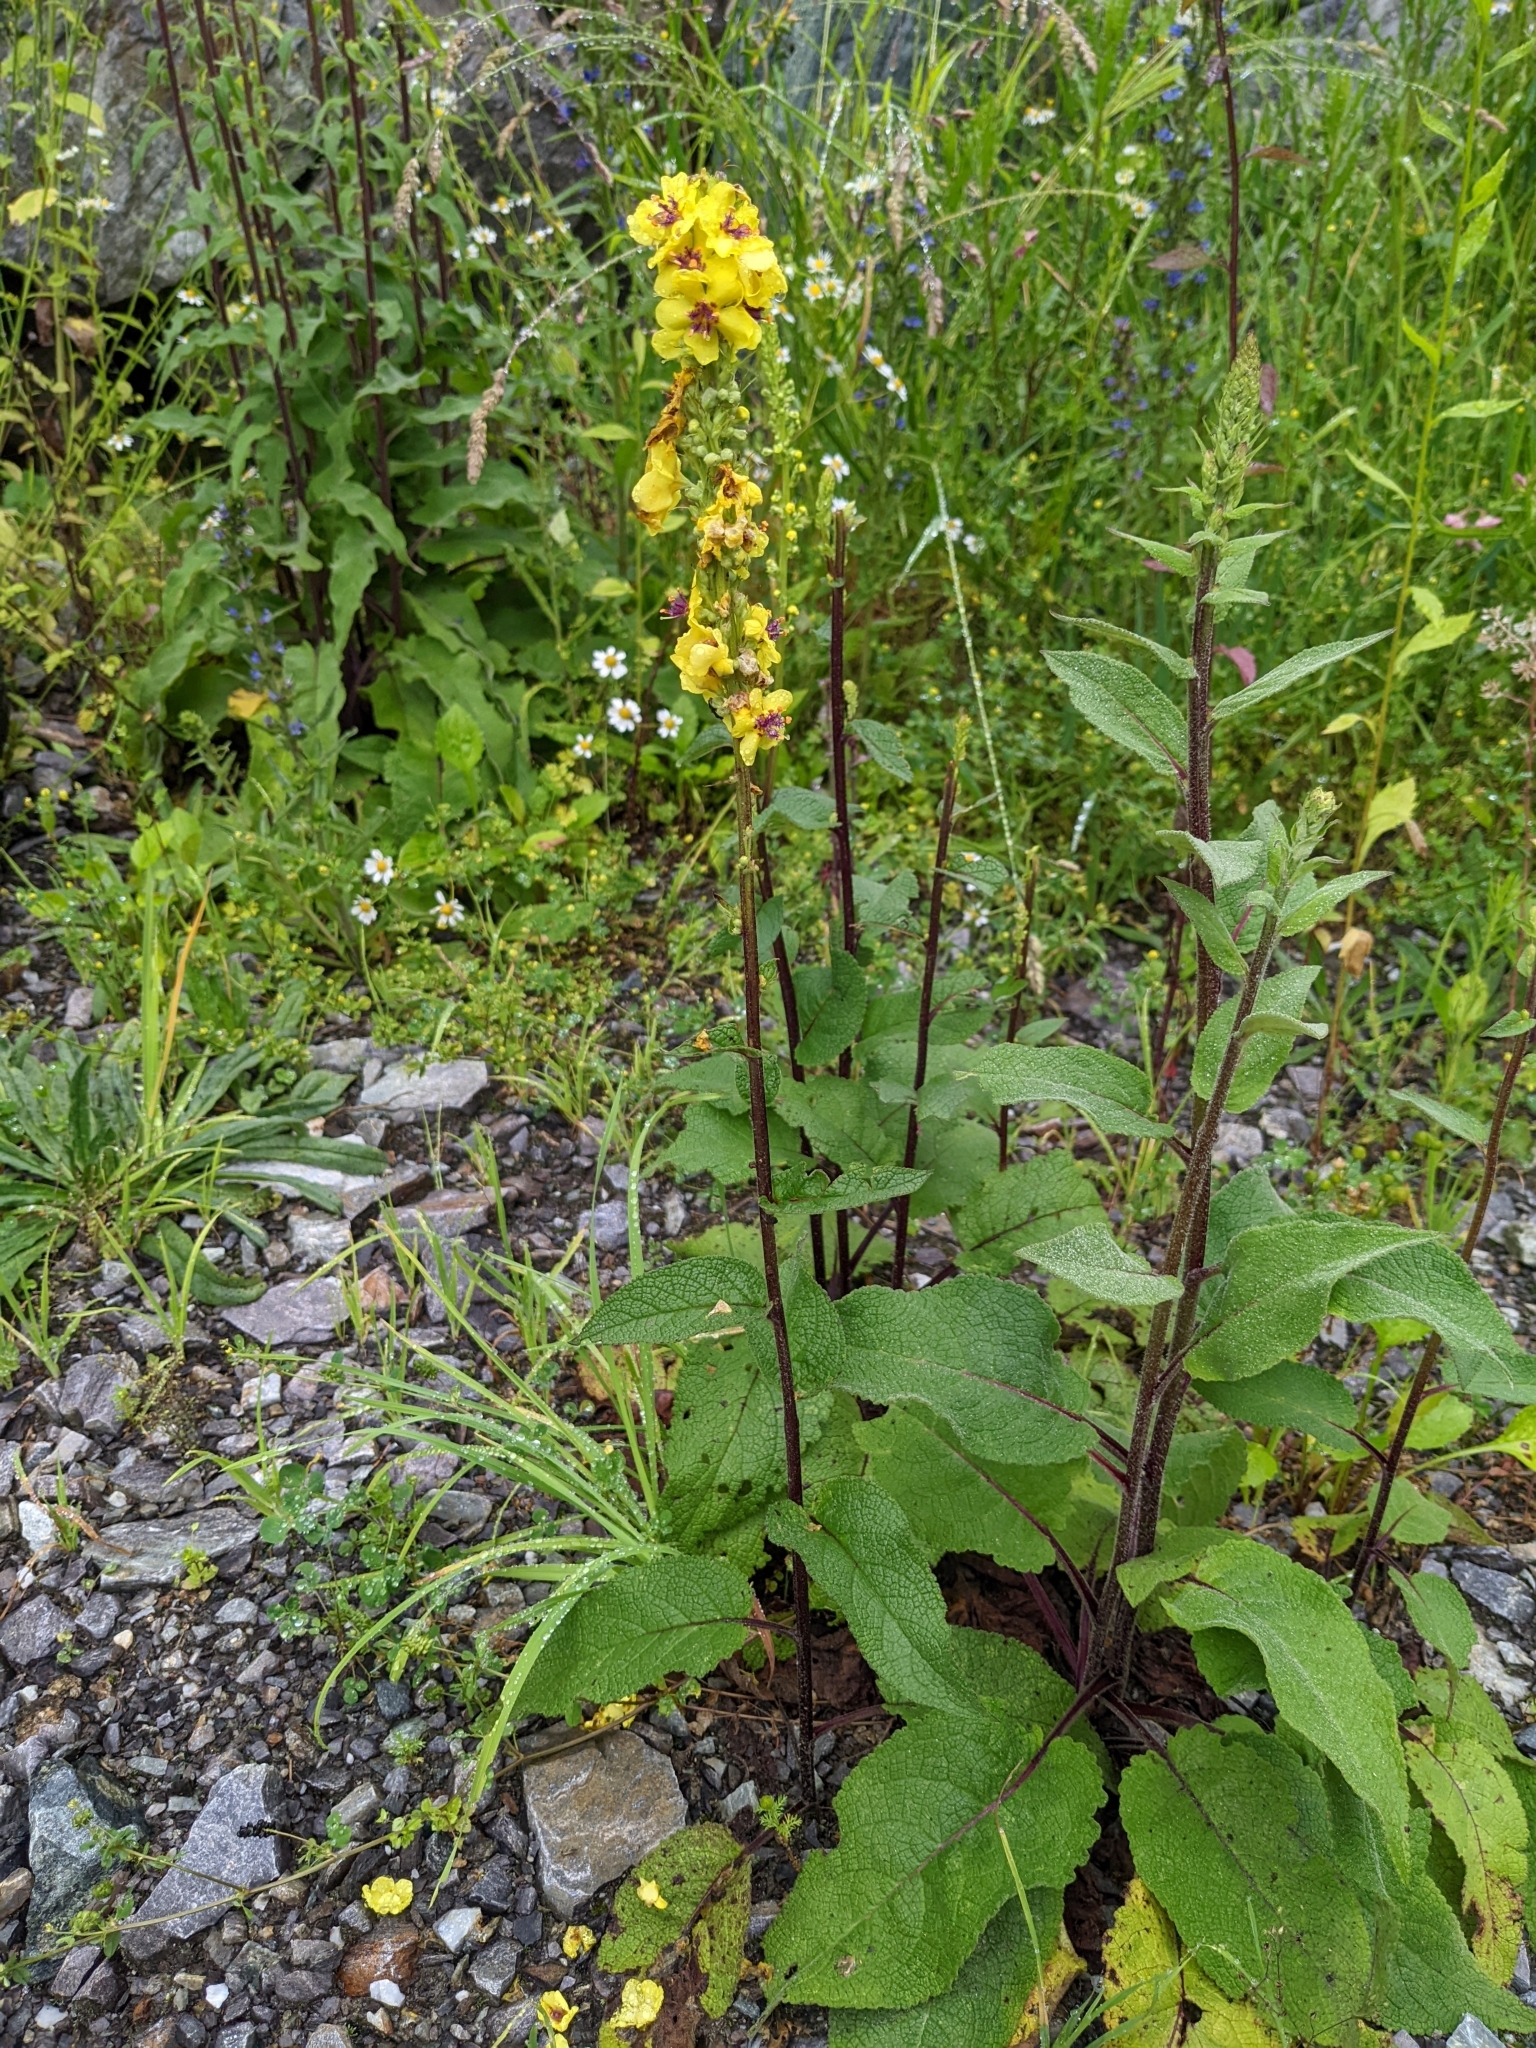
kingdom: Plantae
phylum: Tracheophyta
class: Magnoliopsida
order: Lamiales
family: Scrophulariaceae
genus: Verbascum
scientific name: Verbascum nigrum
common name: Dark mullein
